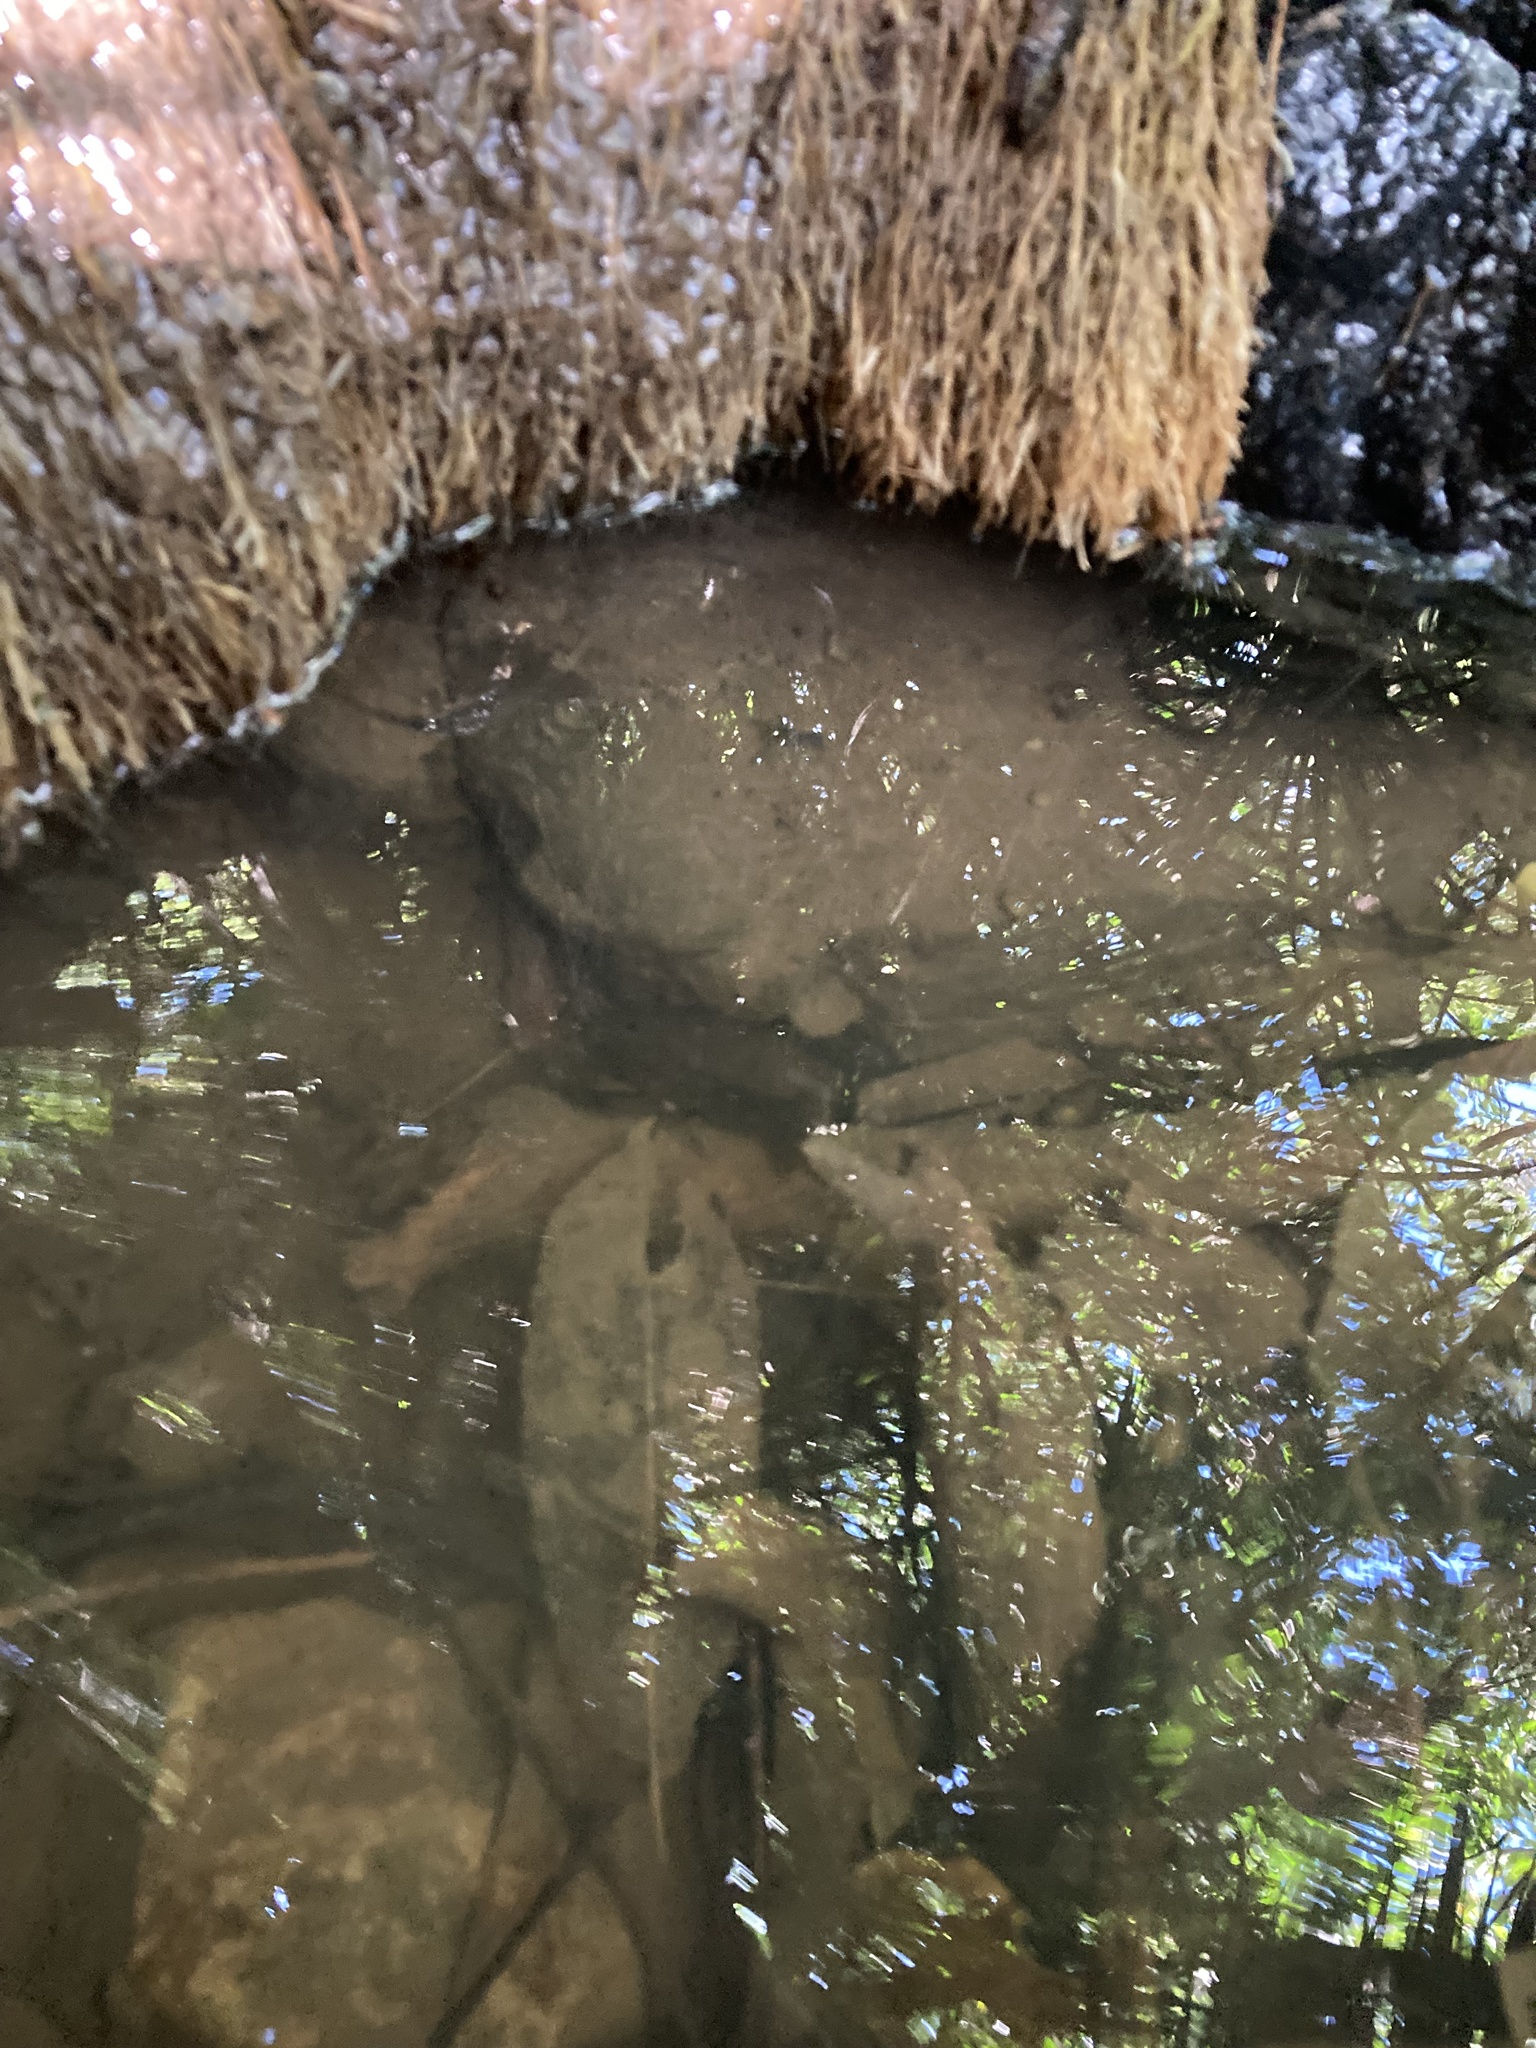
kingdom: Animalia
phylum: Arthropoda
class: Malacostraca
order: Decapoda
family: Parastacidae
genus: Paranephrops
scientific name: Paranephrops planifrons
